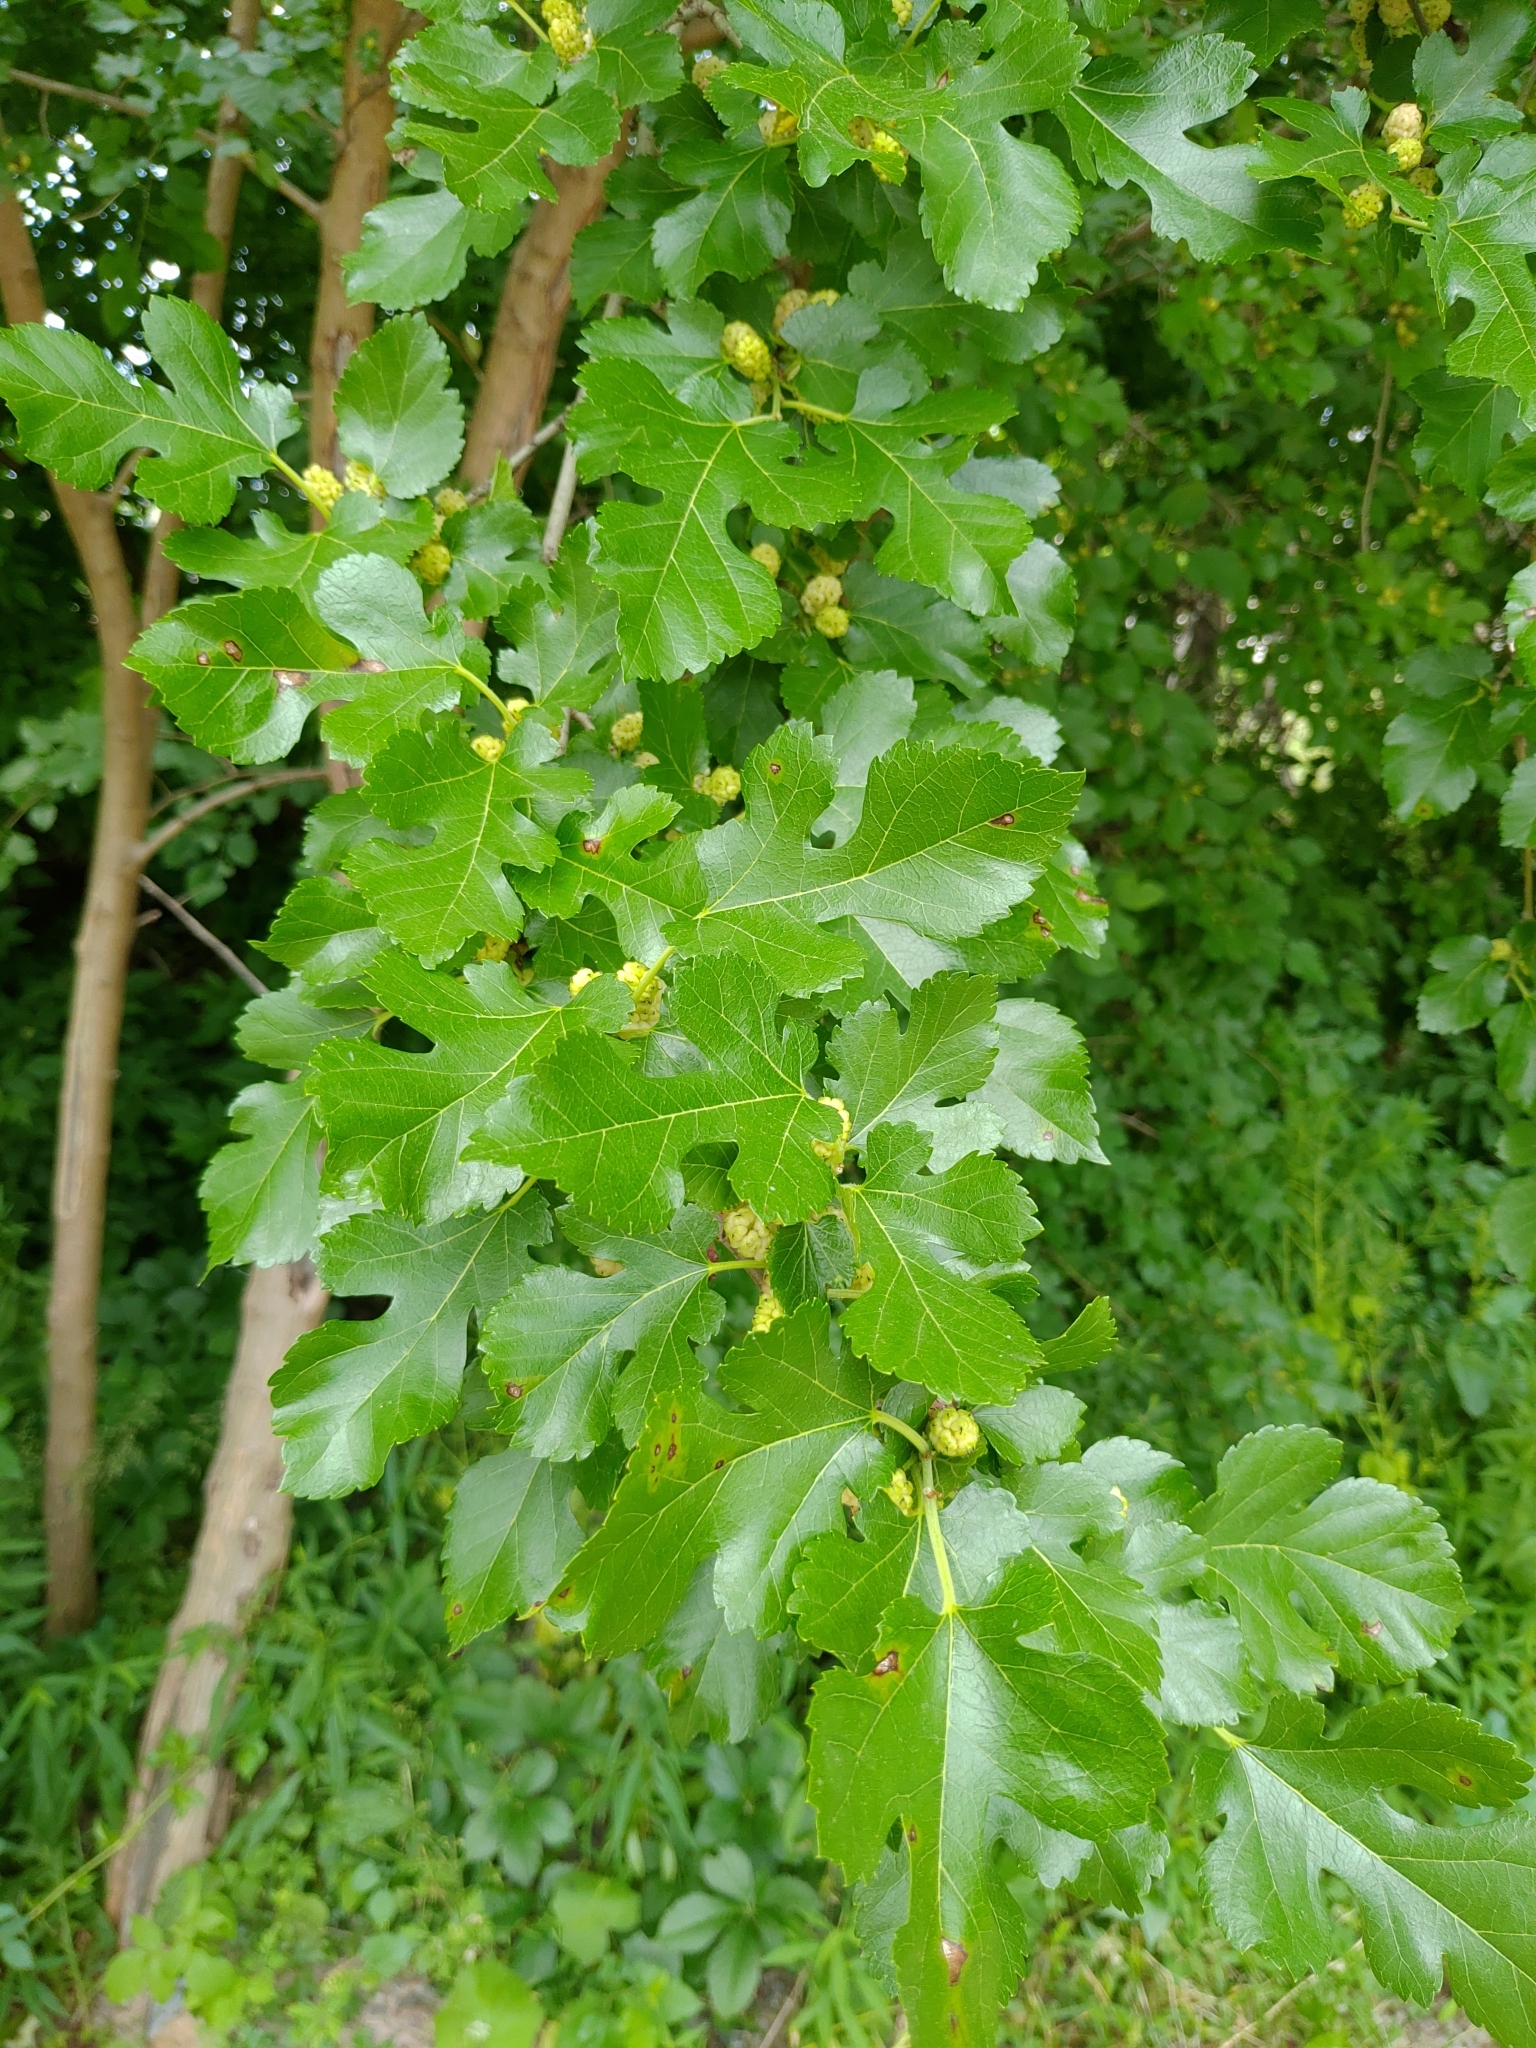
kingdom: Plantae
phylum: Tracheophyta
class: Magnoliopsida
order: Rosales
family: Moraceae
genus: Morus
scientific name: Morus alba
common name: White mulberry
